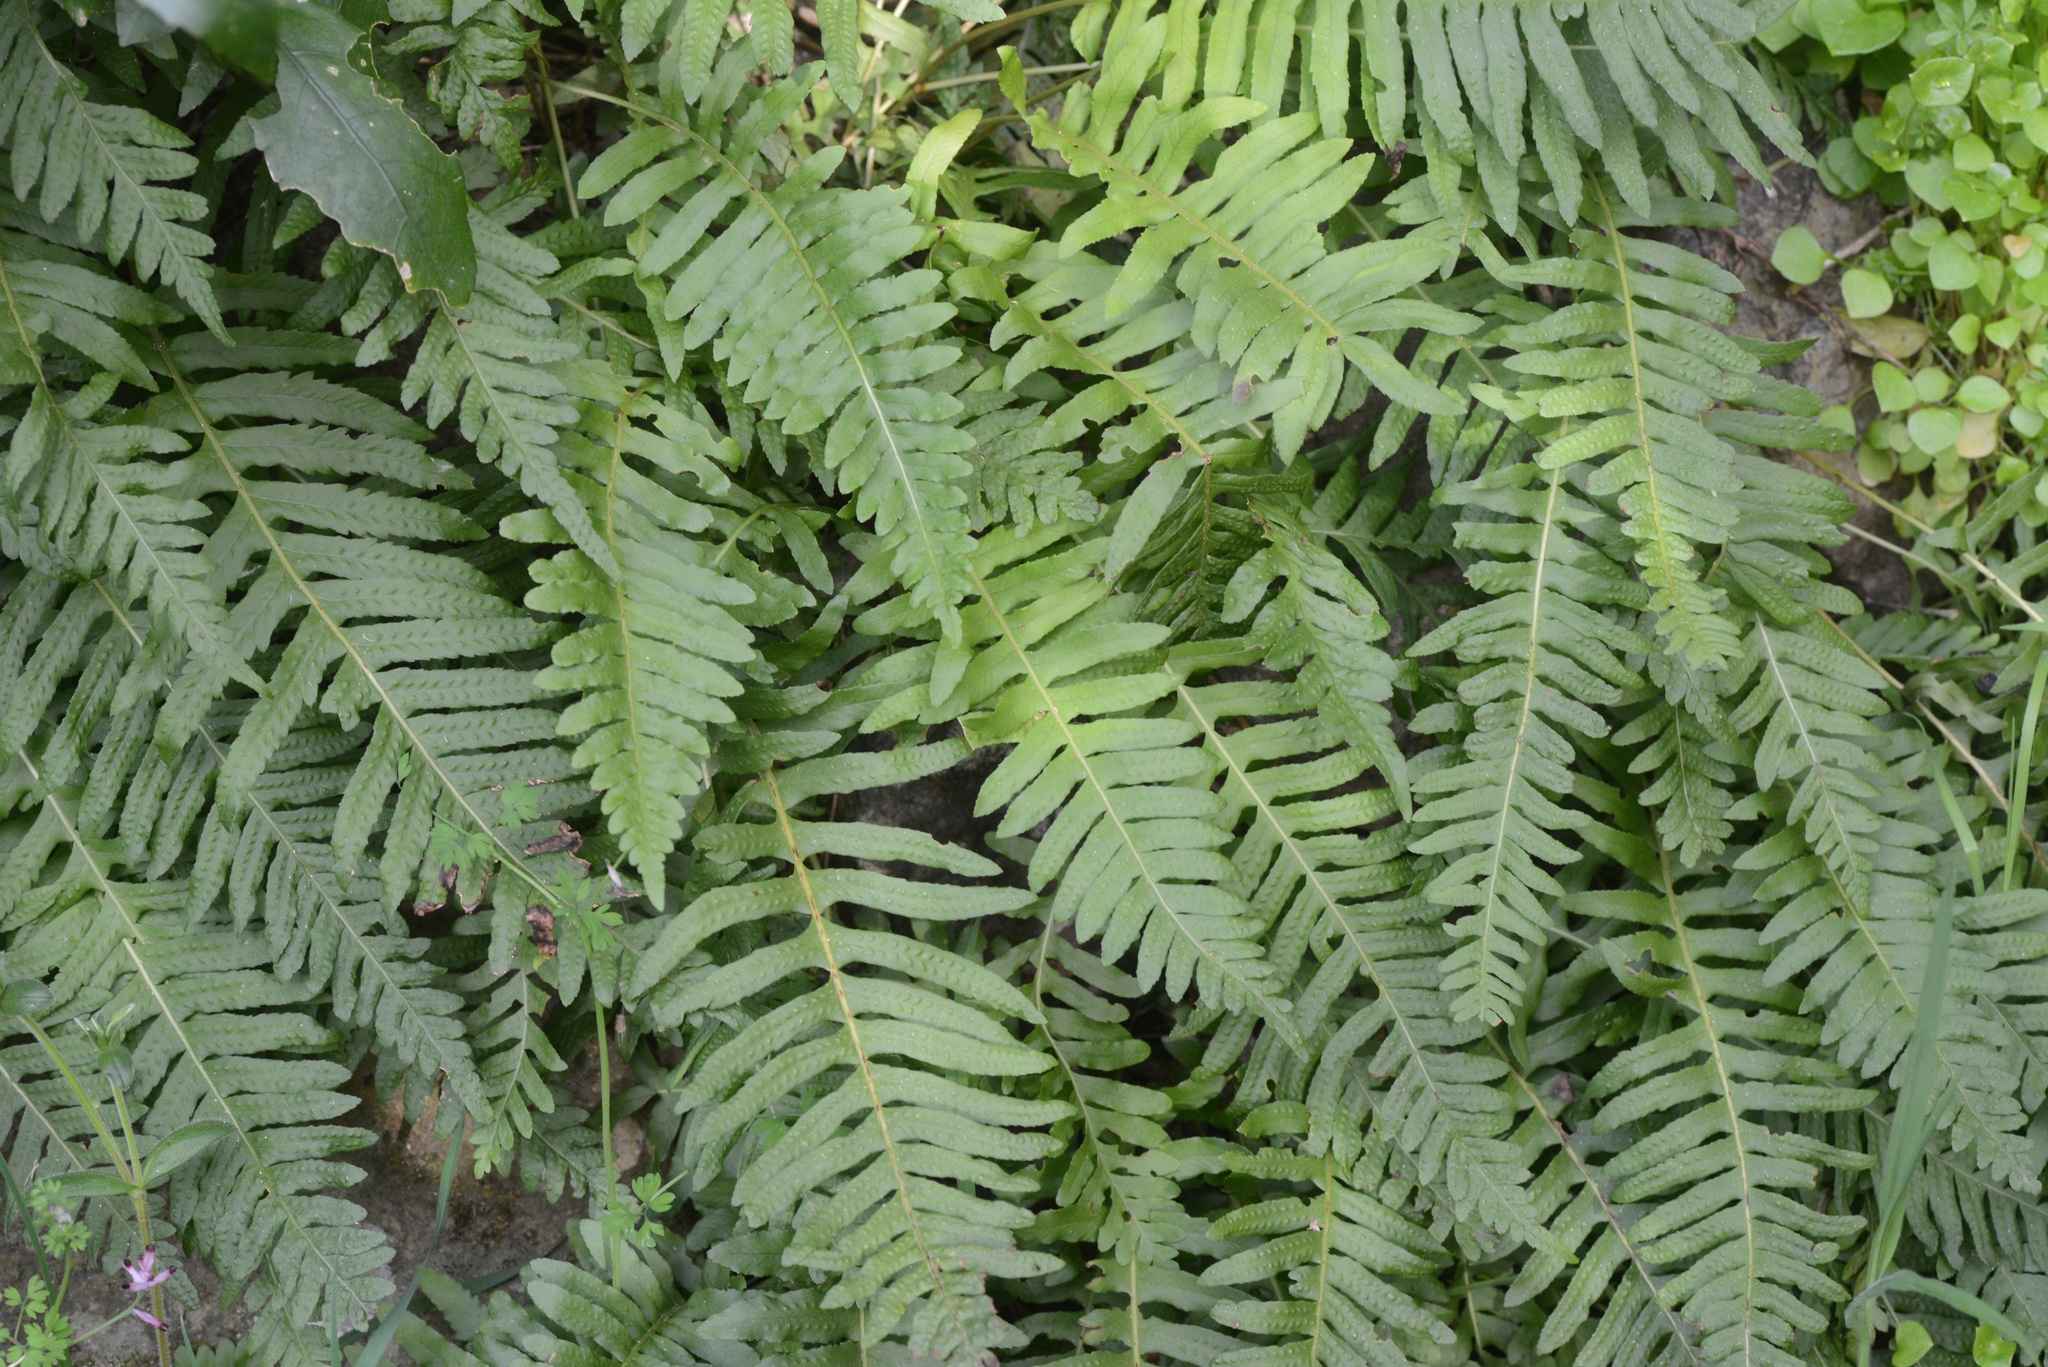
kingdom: Plantae
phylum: Tracheophyta
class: Polypodiopsida
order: Polypodiales
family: Polypodiaceae
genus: Polypodium
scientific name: Polypodium vulgare
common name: Common polypody
